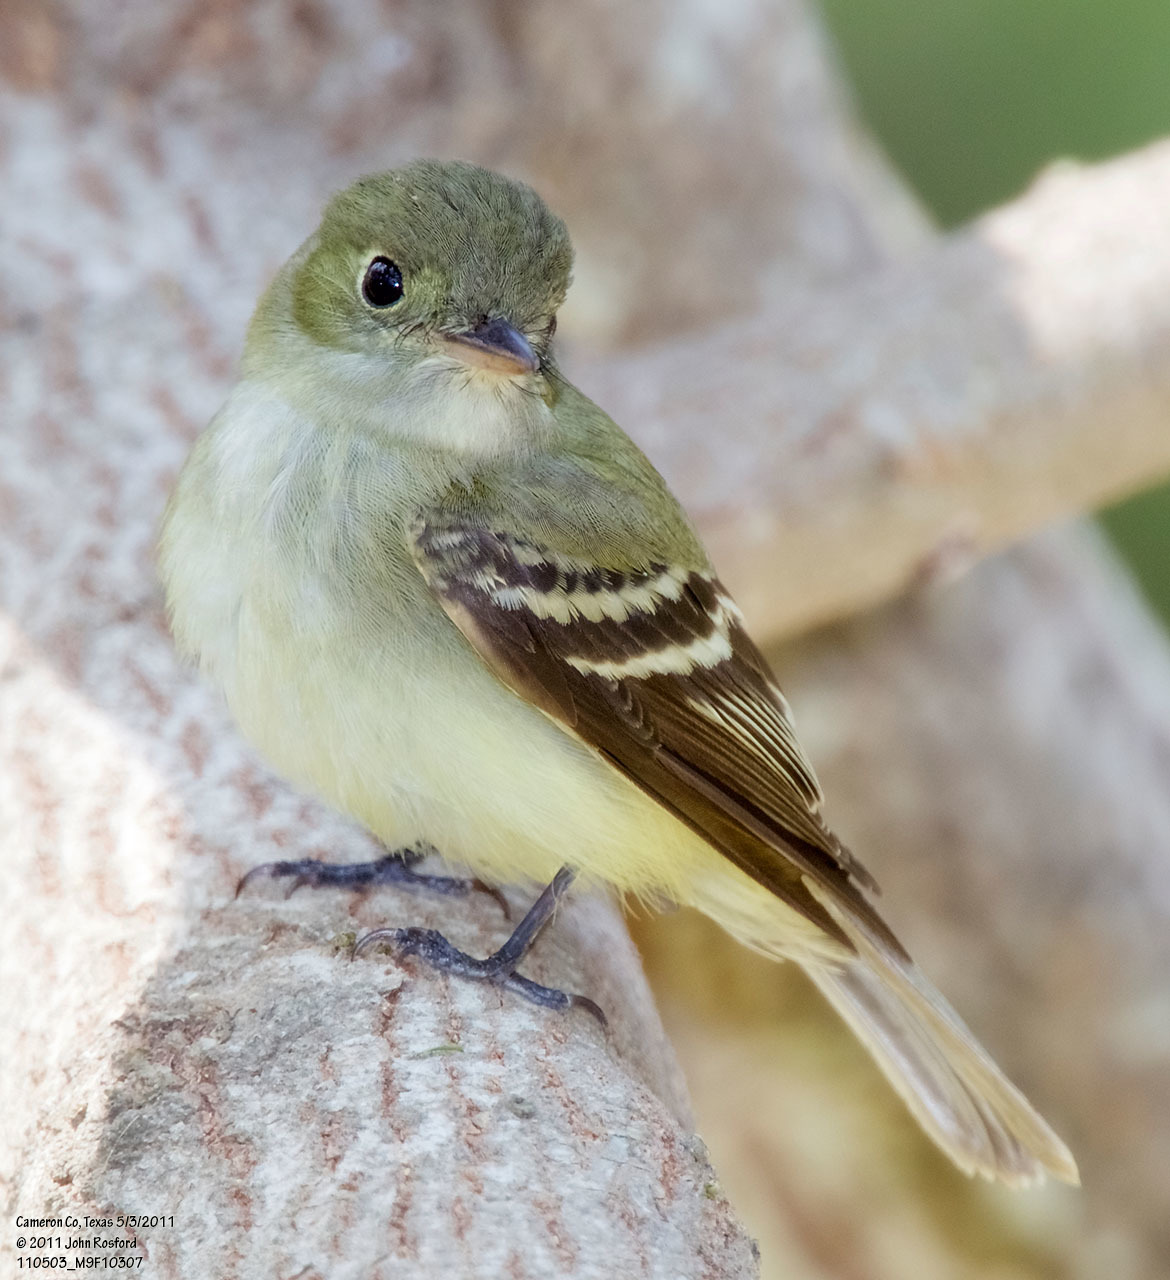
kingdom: Animalia
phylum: Chordata
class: Aves
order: Passeriformes
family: Tyrannidae
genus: Empidonax
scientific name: Empidonax virescens
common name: Acadian flycatcher
